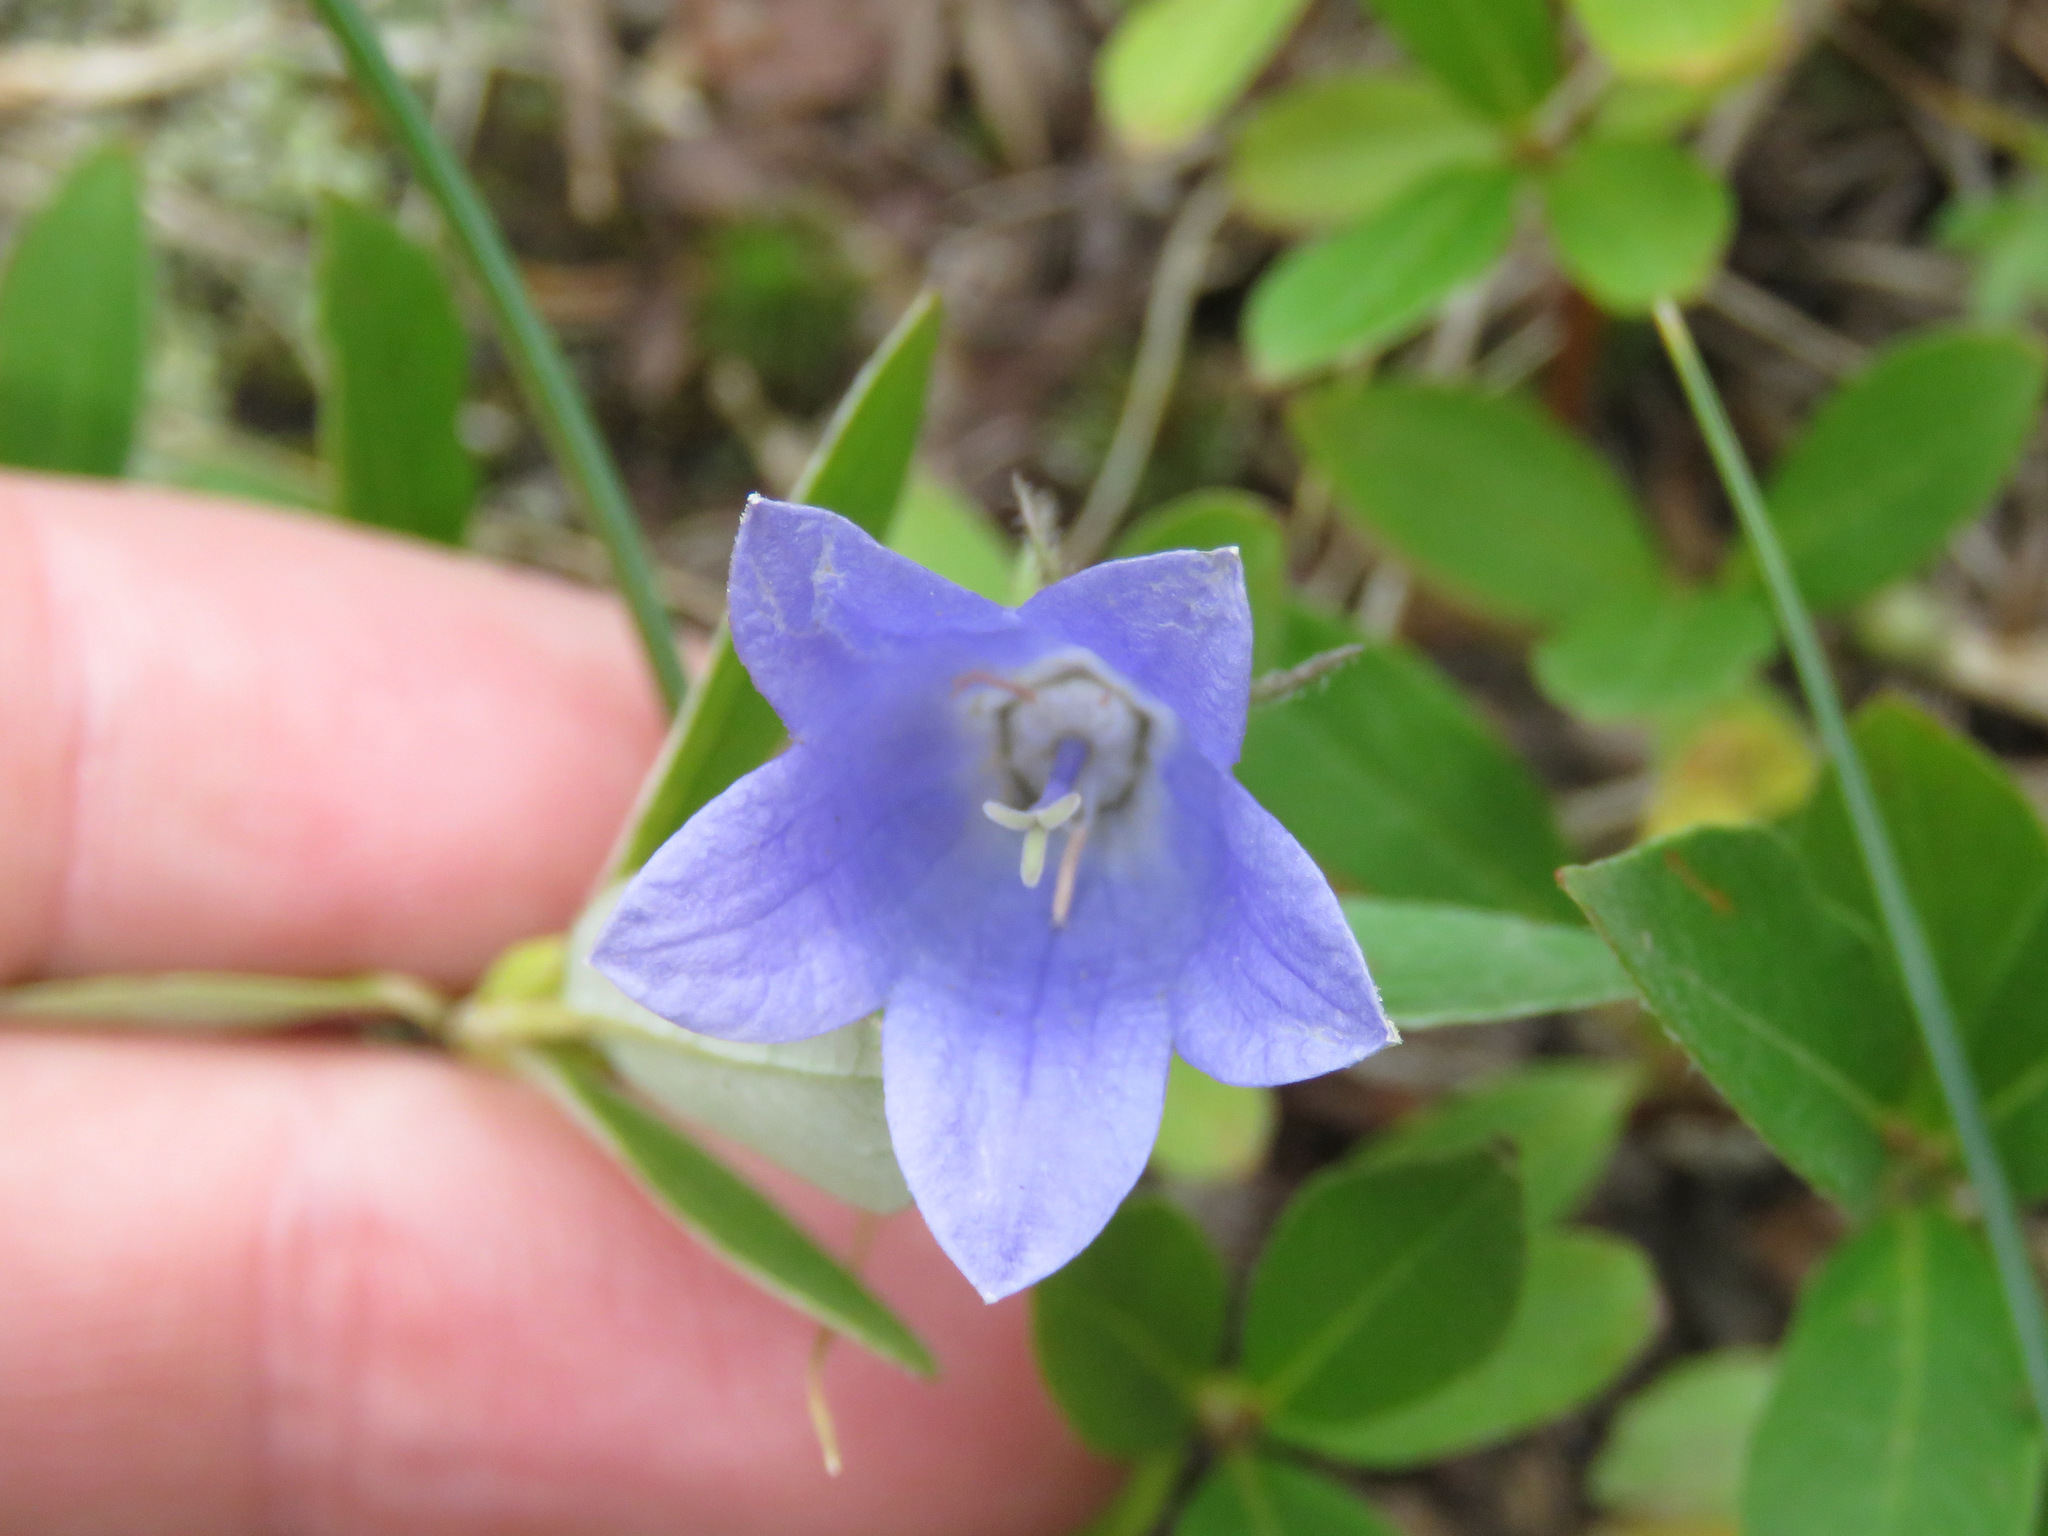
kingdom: Plantae
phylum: Tracheophyta
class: Magnoliopsida
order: Asterales
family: Campanulaceae
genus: Campanula
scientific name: Campanula lasiocarpa
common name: Mountain harebell
